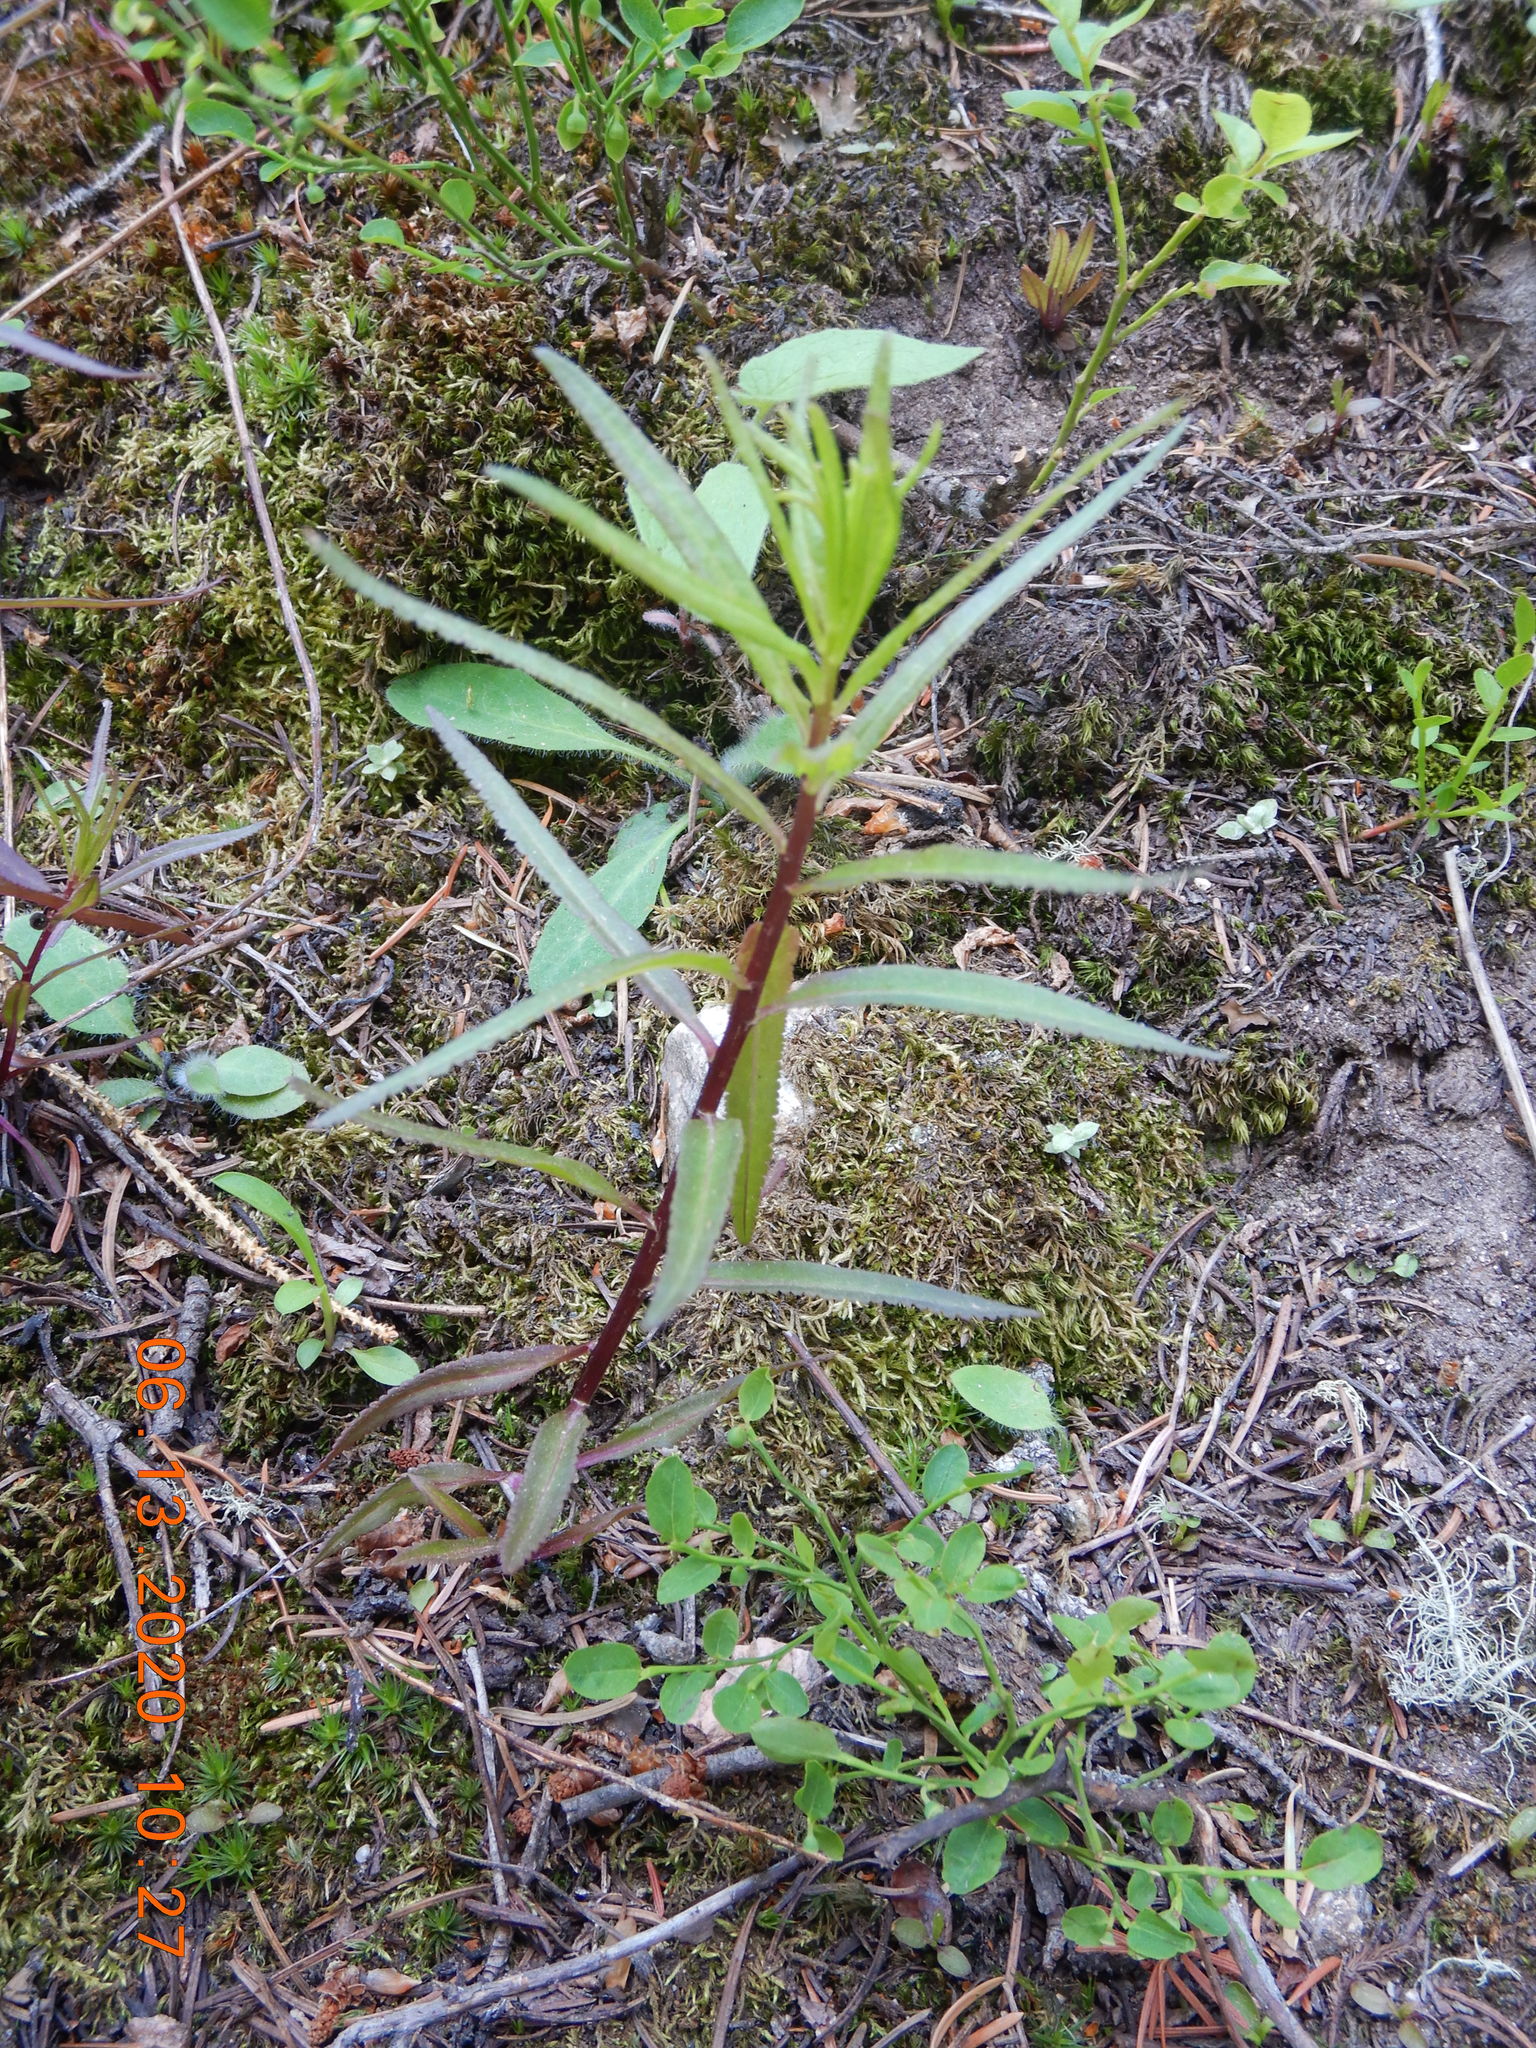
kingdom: Plantae
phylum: Tracheophyta
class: Magnoliopsida
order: Lamiales
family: Orobanchaceae
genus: Pedicularis
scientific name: Pedicularis racemosa
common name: Leafy lousewort
